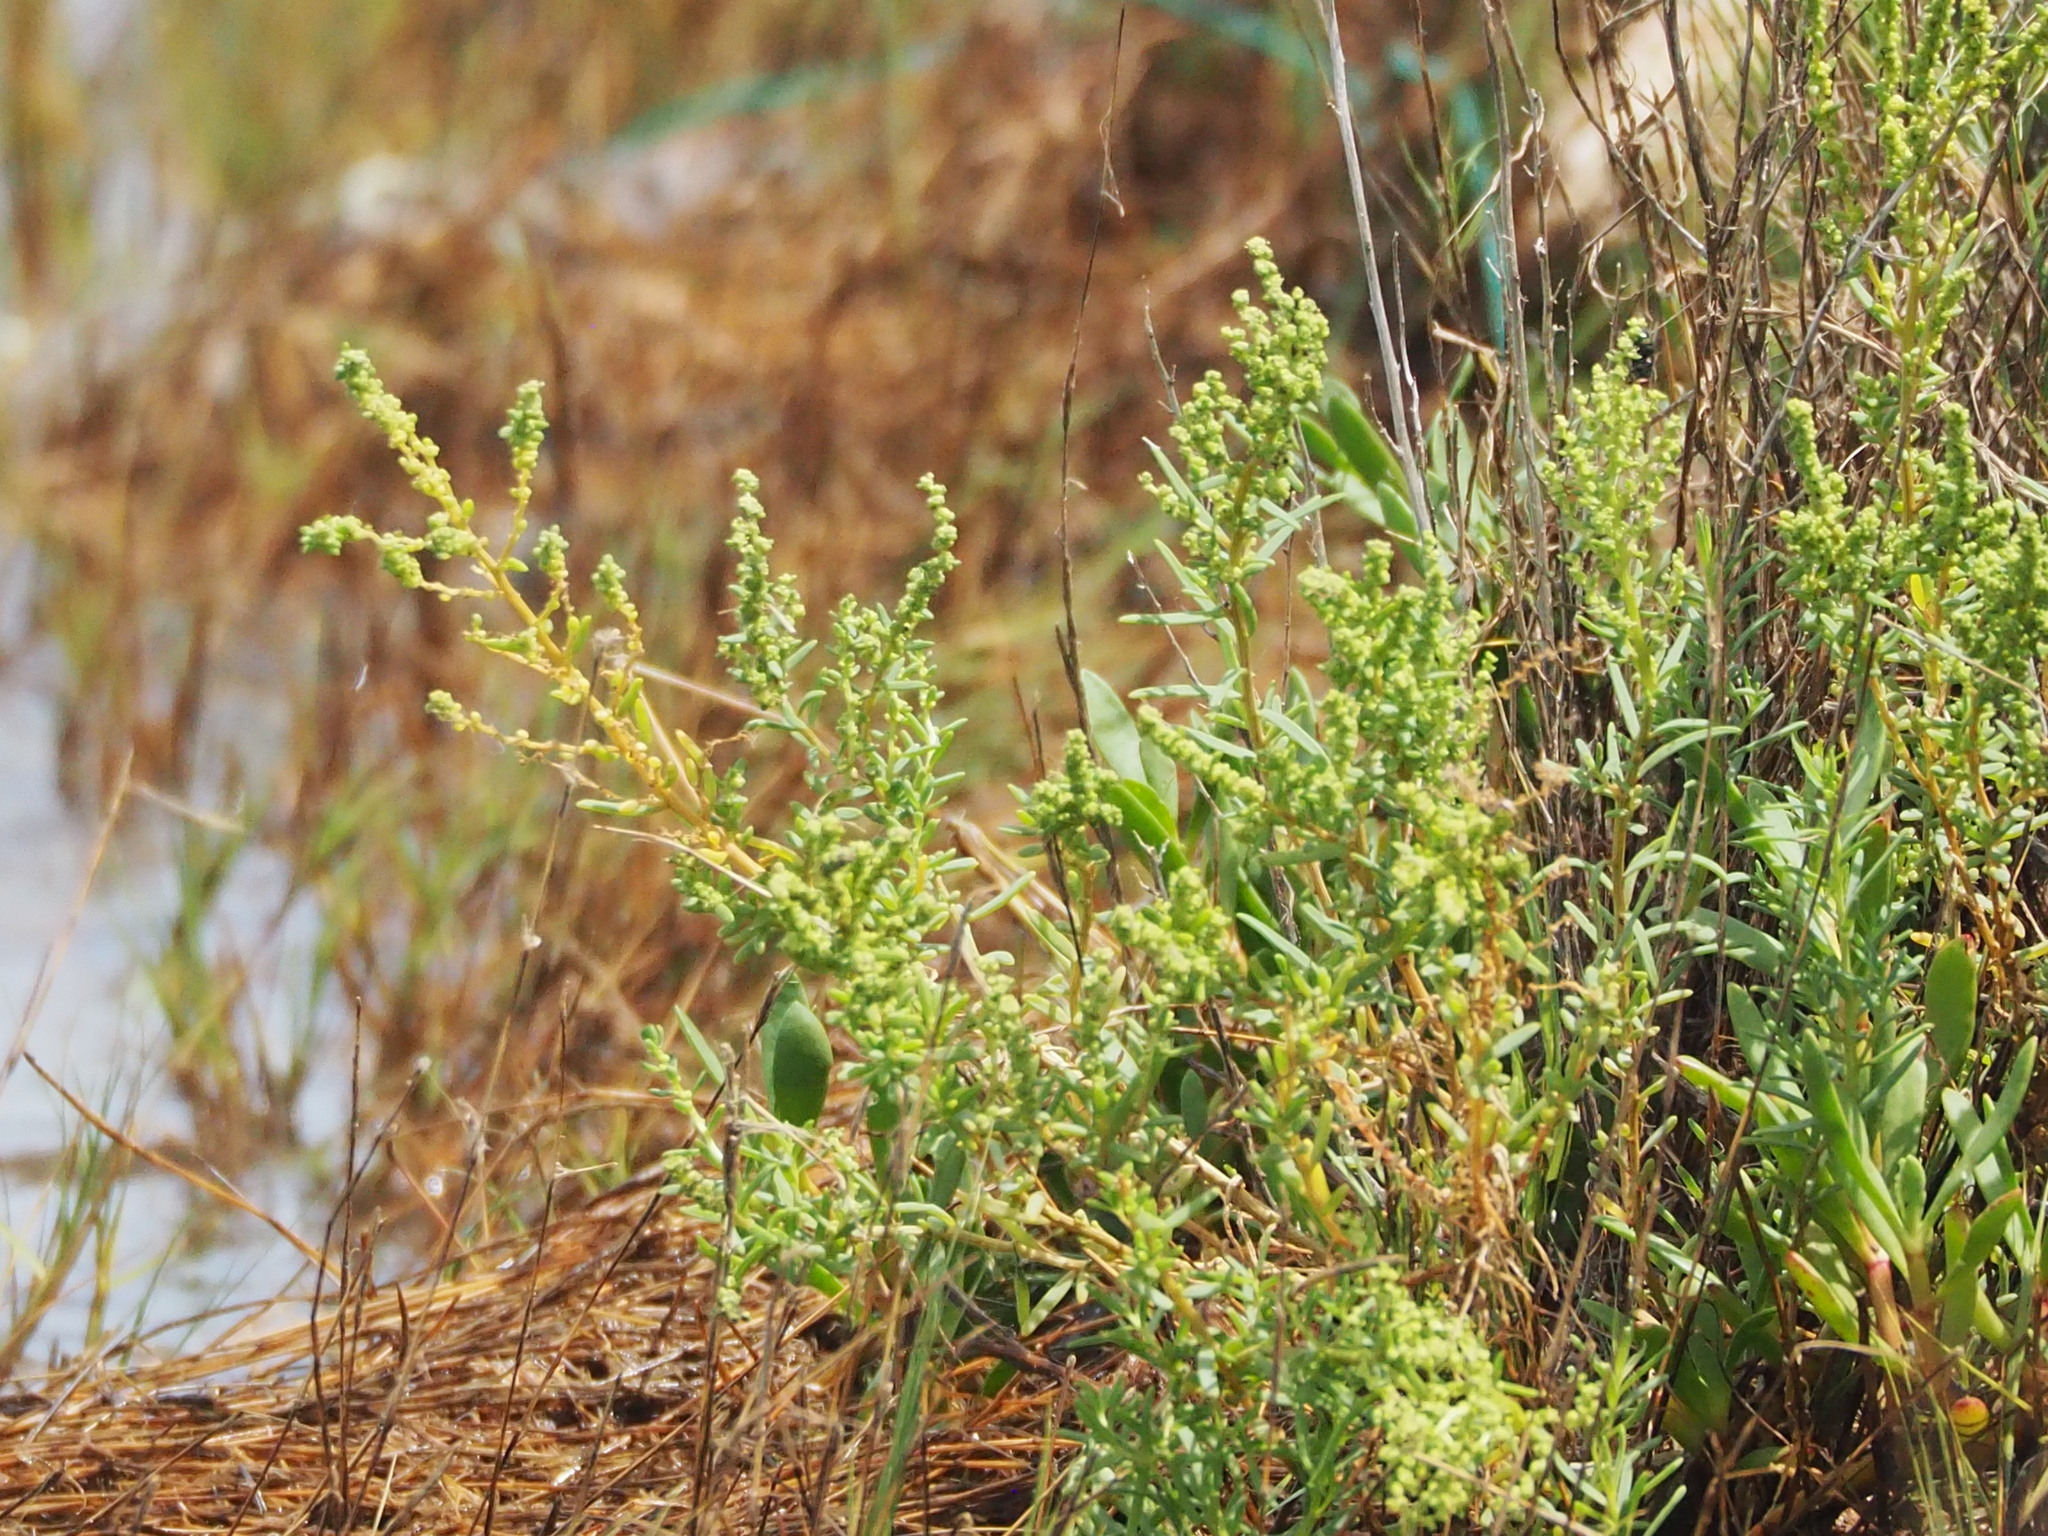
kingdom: Plantae
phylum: Tracheophyta
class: Magnoliopsida
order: Caryophyllales
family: Amaranthaceae
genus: Suaeda
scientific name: Suaeda maritima
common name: Annual sea-blite
